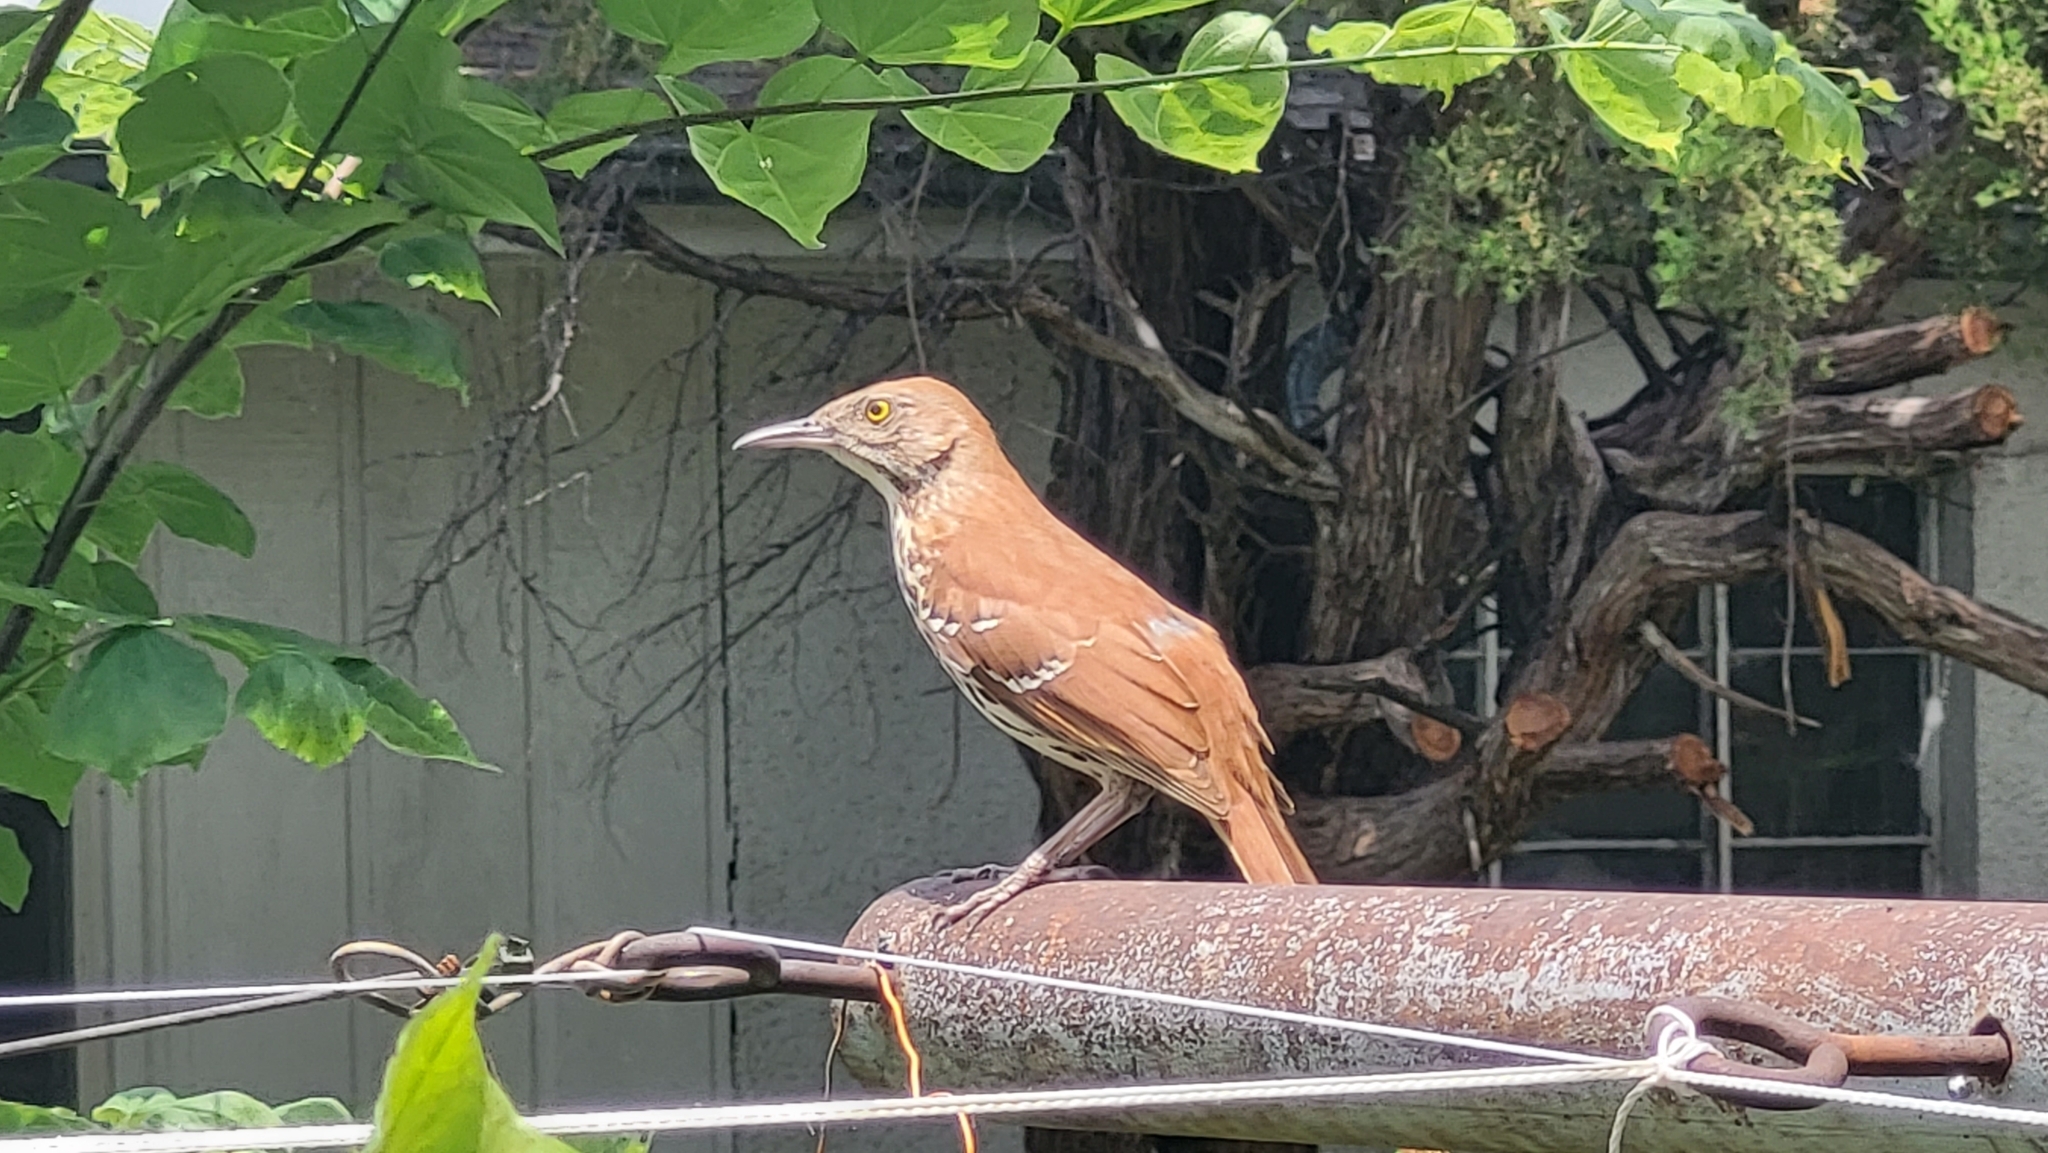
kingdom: Animalia
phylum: Chordata
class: Aves
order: Passeriformes
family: Mimidae
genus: Toxostoma
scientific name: Toxostoma rufum
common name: Brown thrasher
